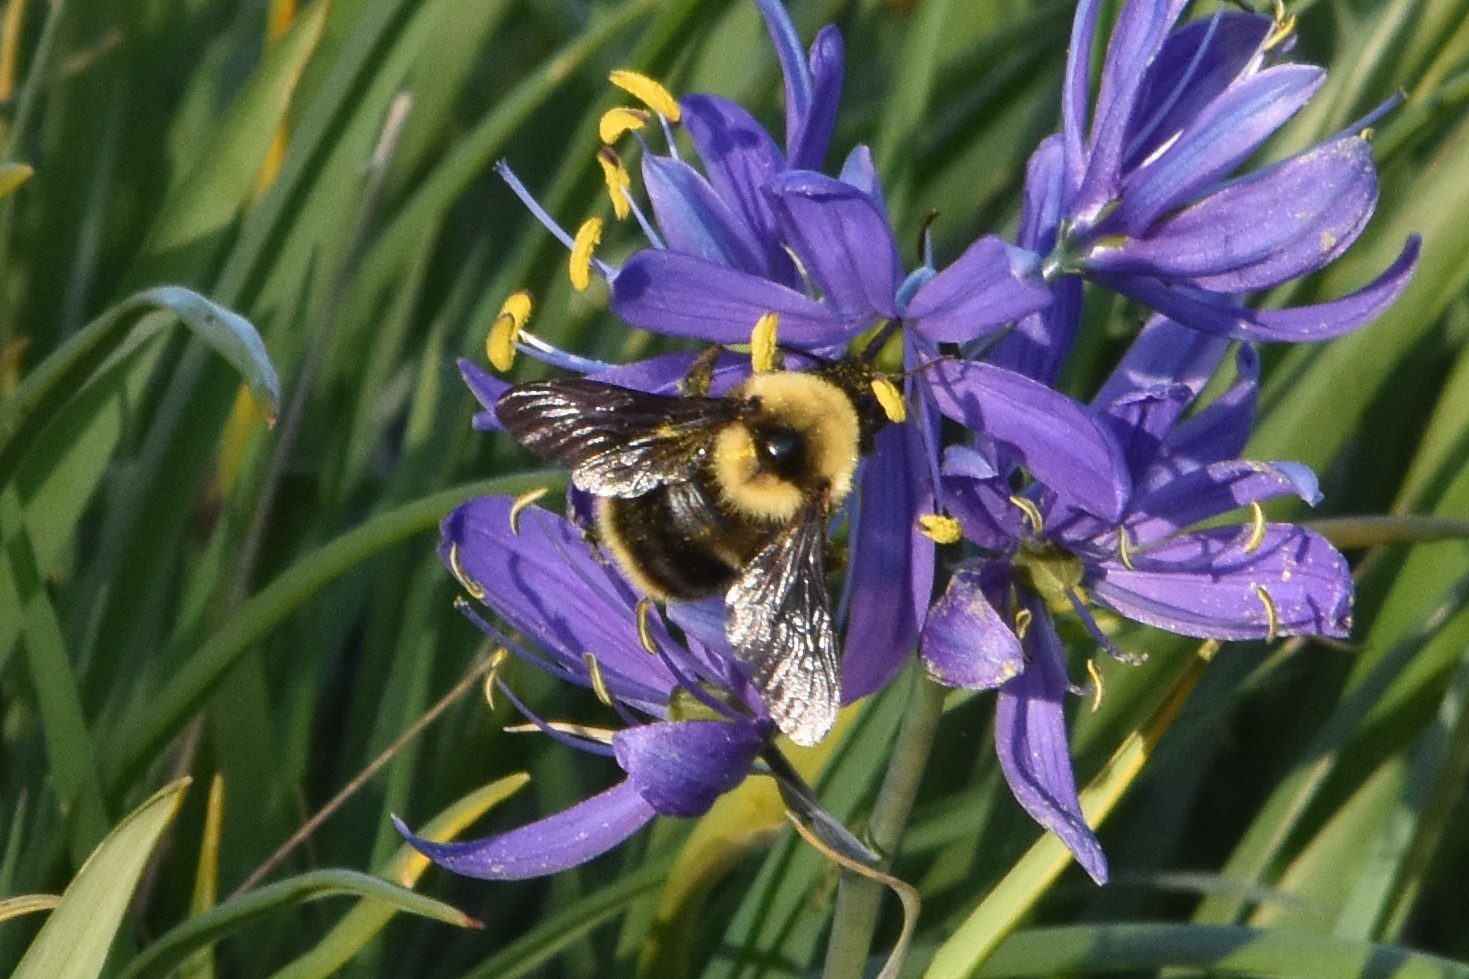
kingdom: Animalia
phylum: Arthropoda
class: Insecta
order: Hymenoptera
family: Apidae
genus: Bombus
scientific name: Bombus californicus
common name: California bumble bee
